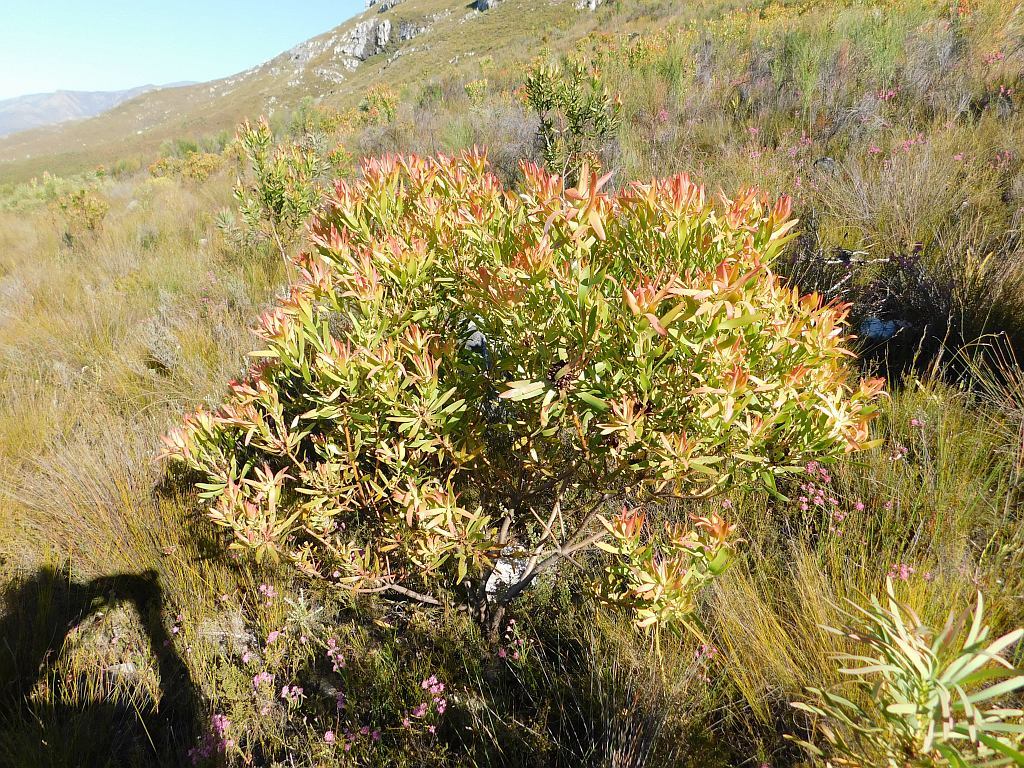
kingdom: Plantae
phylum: Tracheophyta
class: Magnoliopsida
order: Proteales
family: Proteaceae
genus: Leucadendron
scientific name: Leucadendron microcephalum
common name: Oilbract conebush
